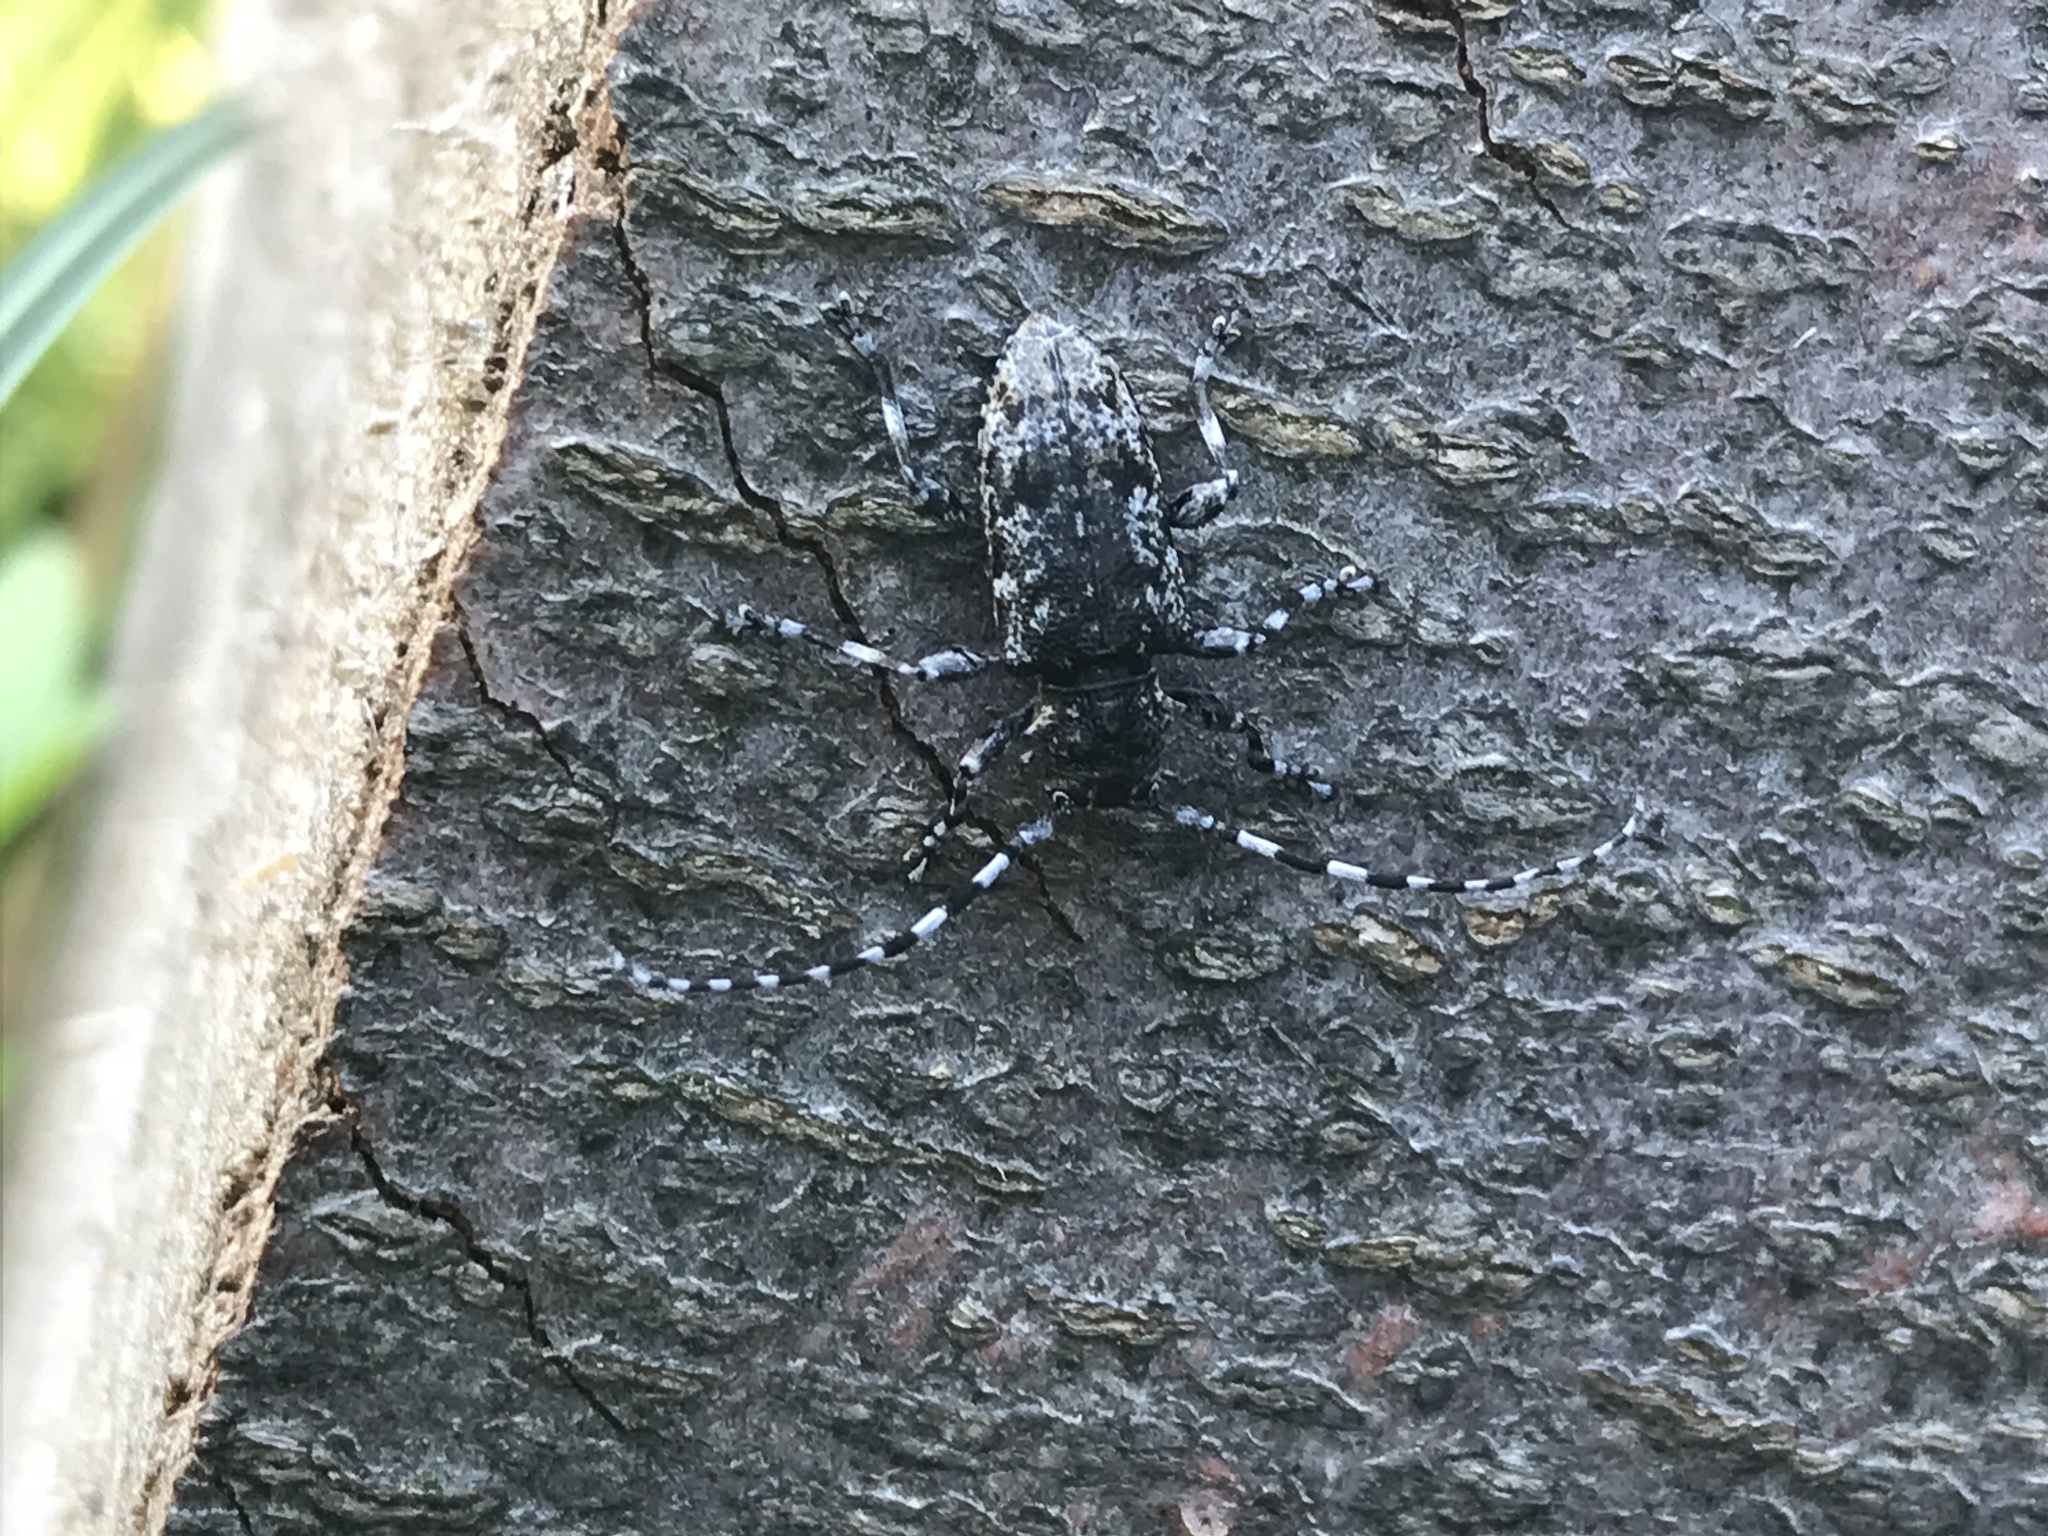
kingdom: Animalia
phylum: Arthropoda
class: Insecta
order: Coleoptera
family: Cerambycidae
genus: Aegomorphus
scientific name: Aegomorphus clavipes
